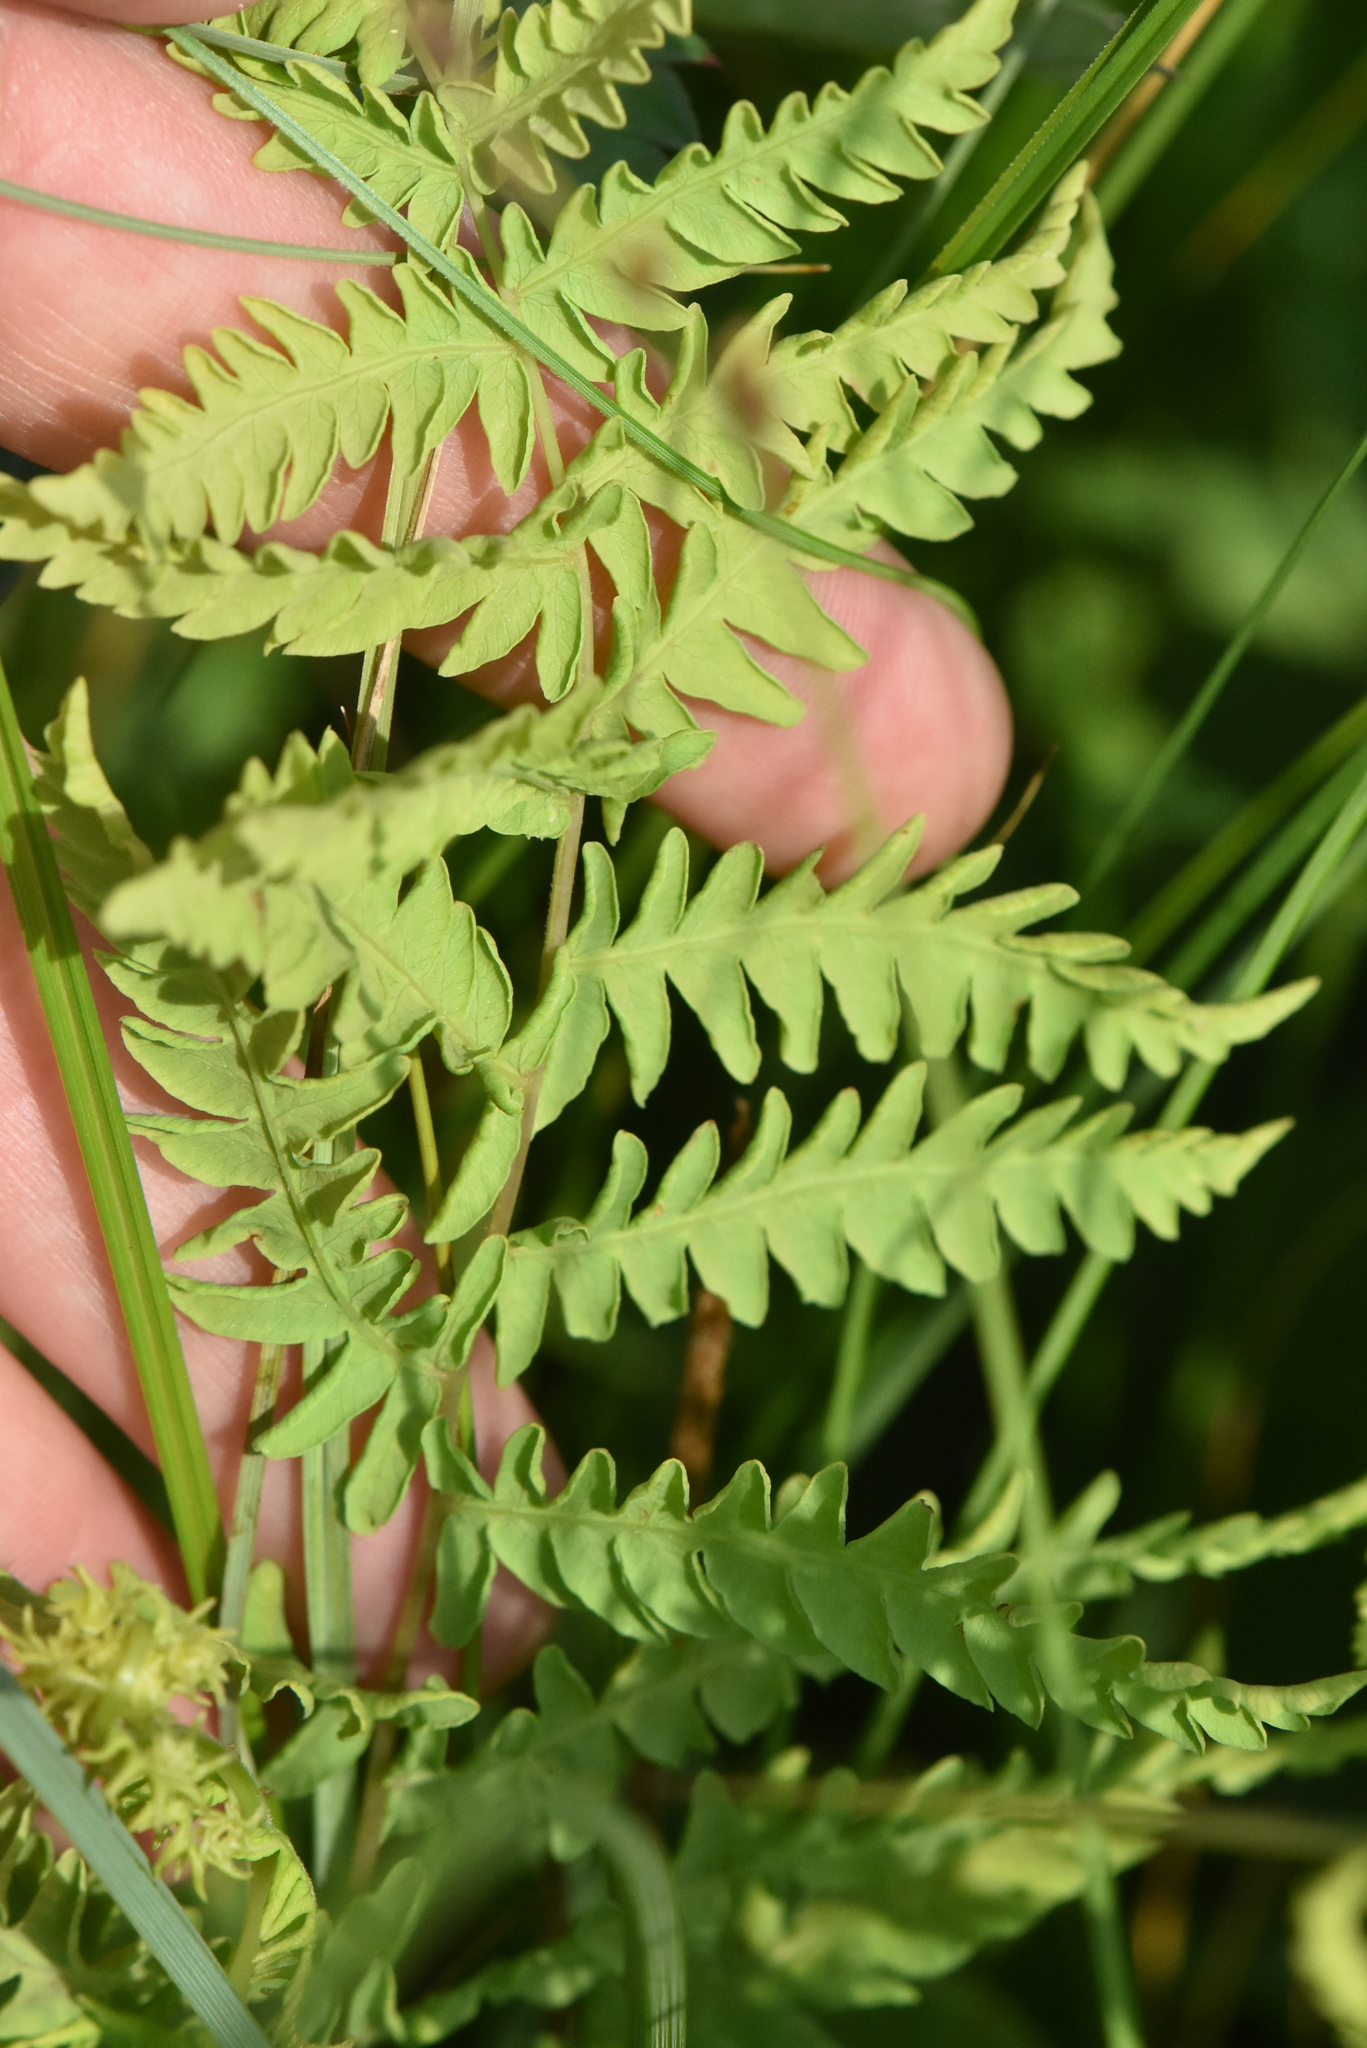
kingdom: Plantae
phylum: Tracheophyta
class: Polypodiopsida
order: Polypodiales
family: Thelypteridaceae
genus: Thelypteris
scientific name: Thelypteris palustris
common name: Marsh fern
